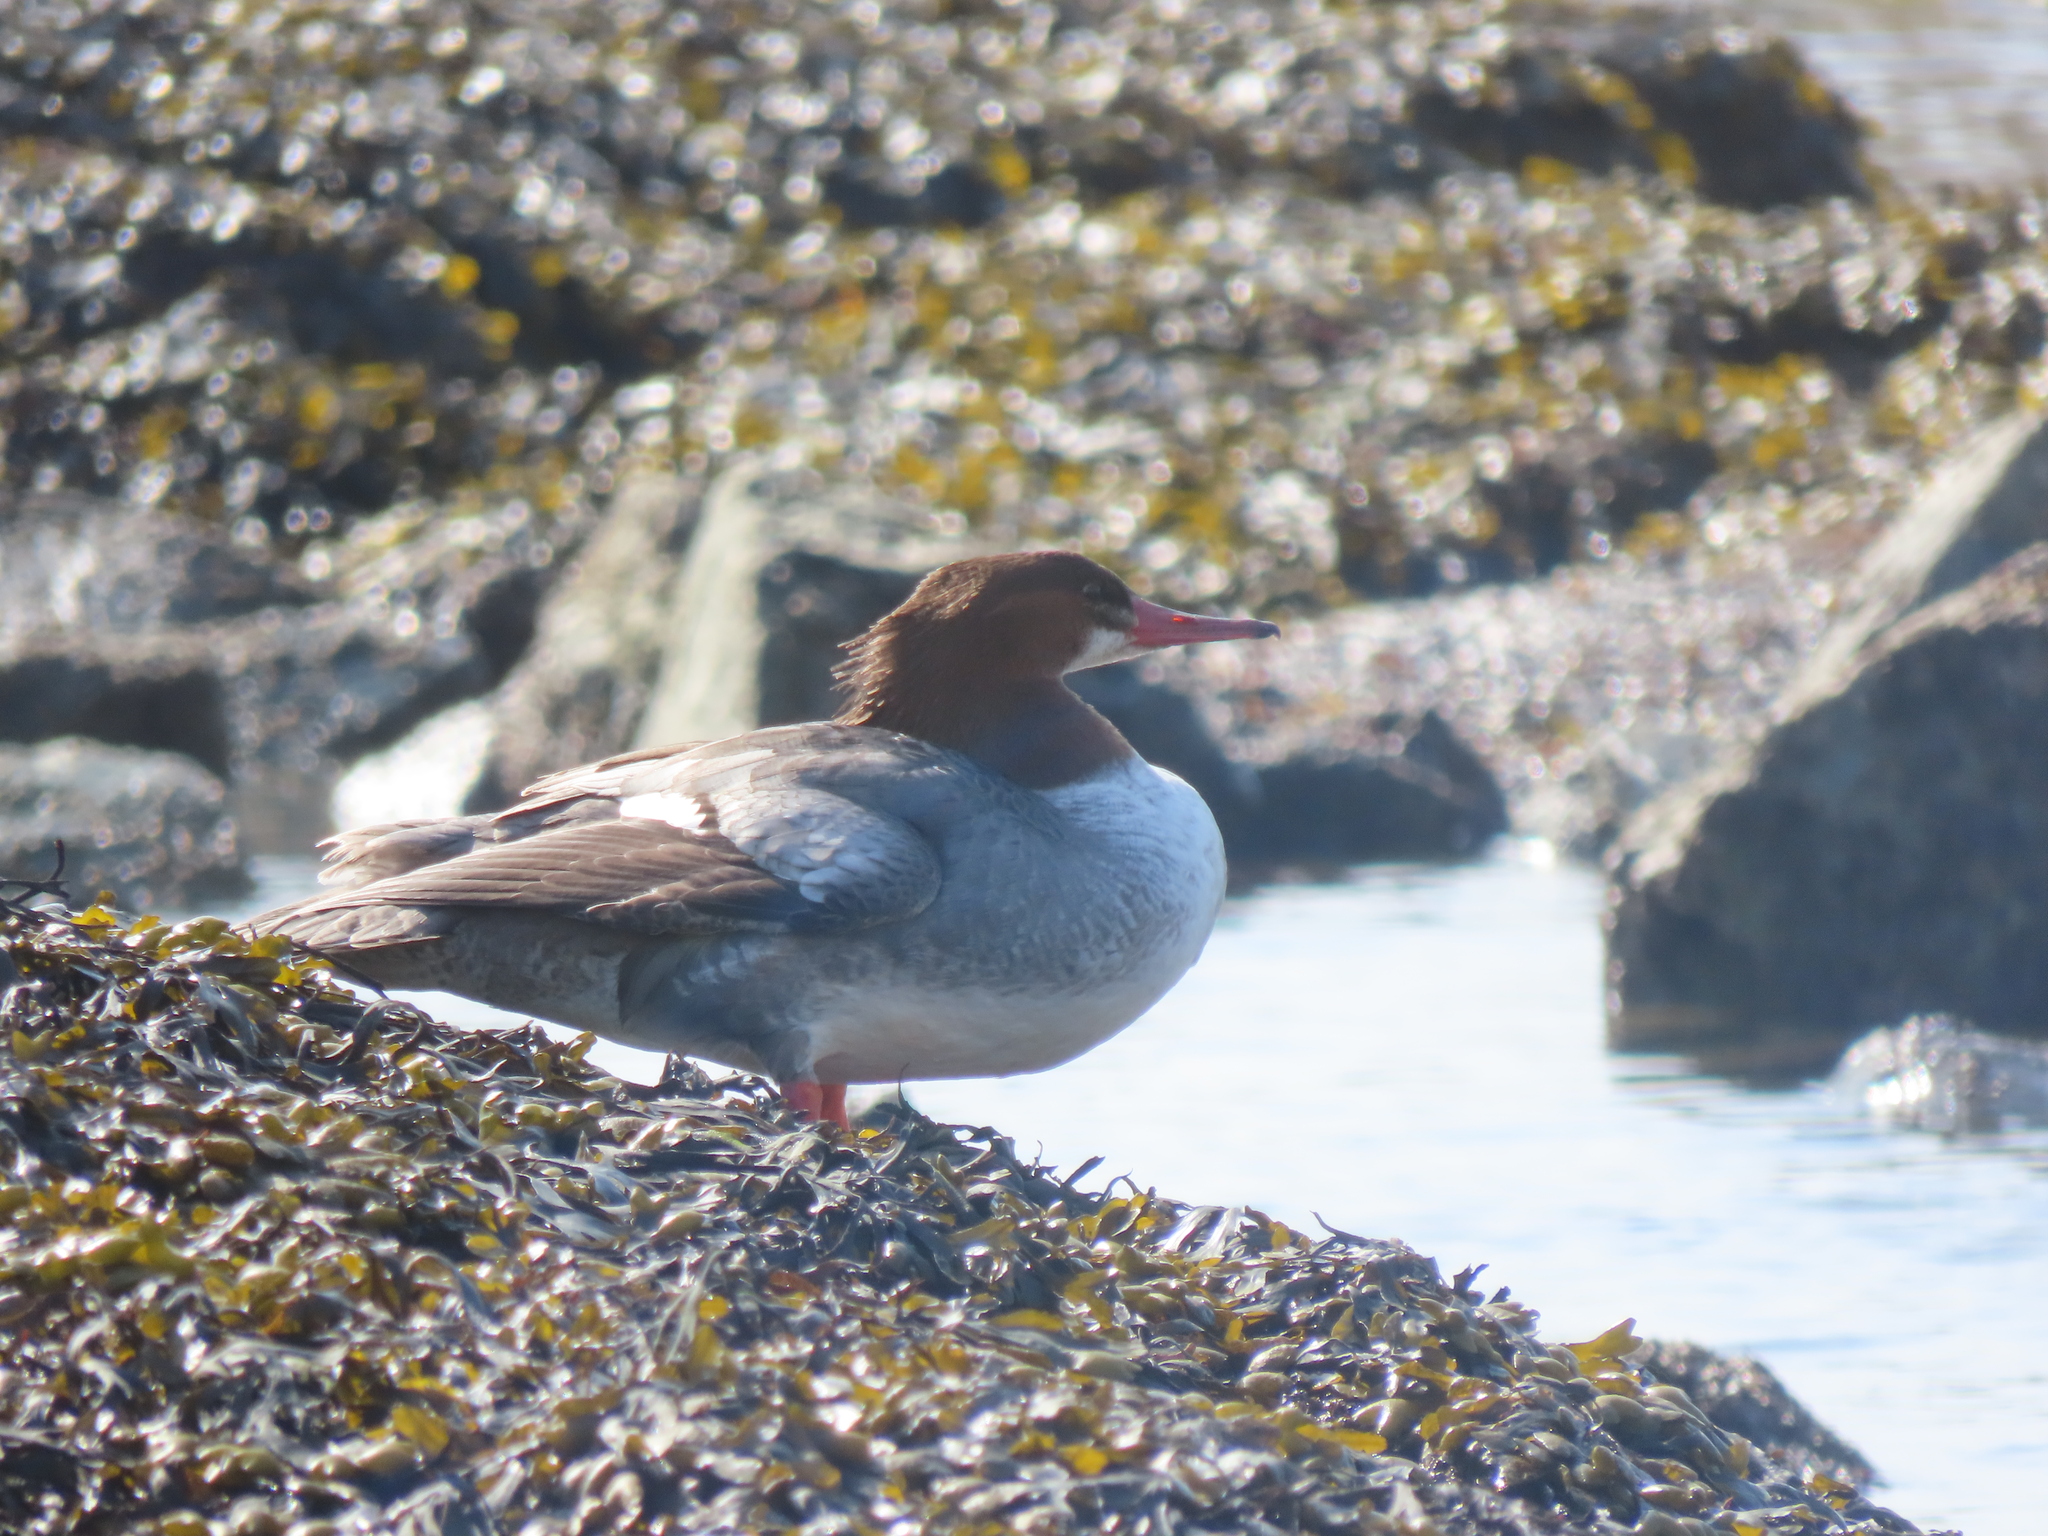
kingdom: Animalia
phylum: Chordata
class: Aves
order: Anseriformes
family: Anatidae
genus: Mergus
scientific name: Mergus merganser
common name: Common merganser
